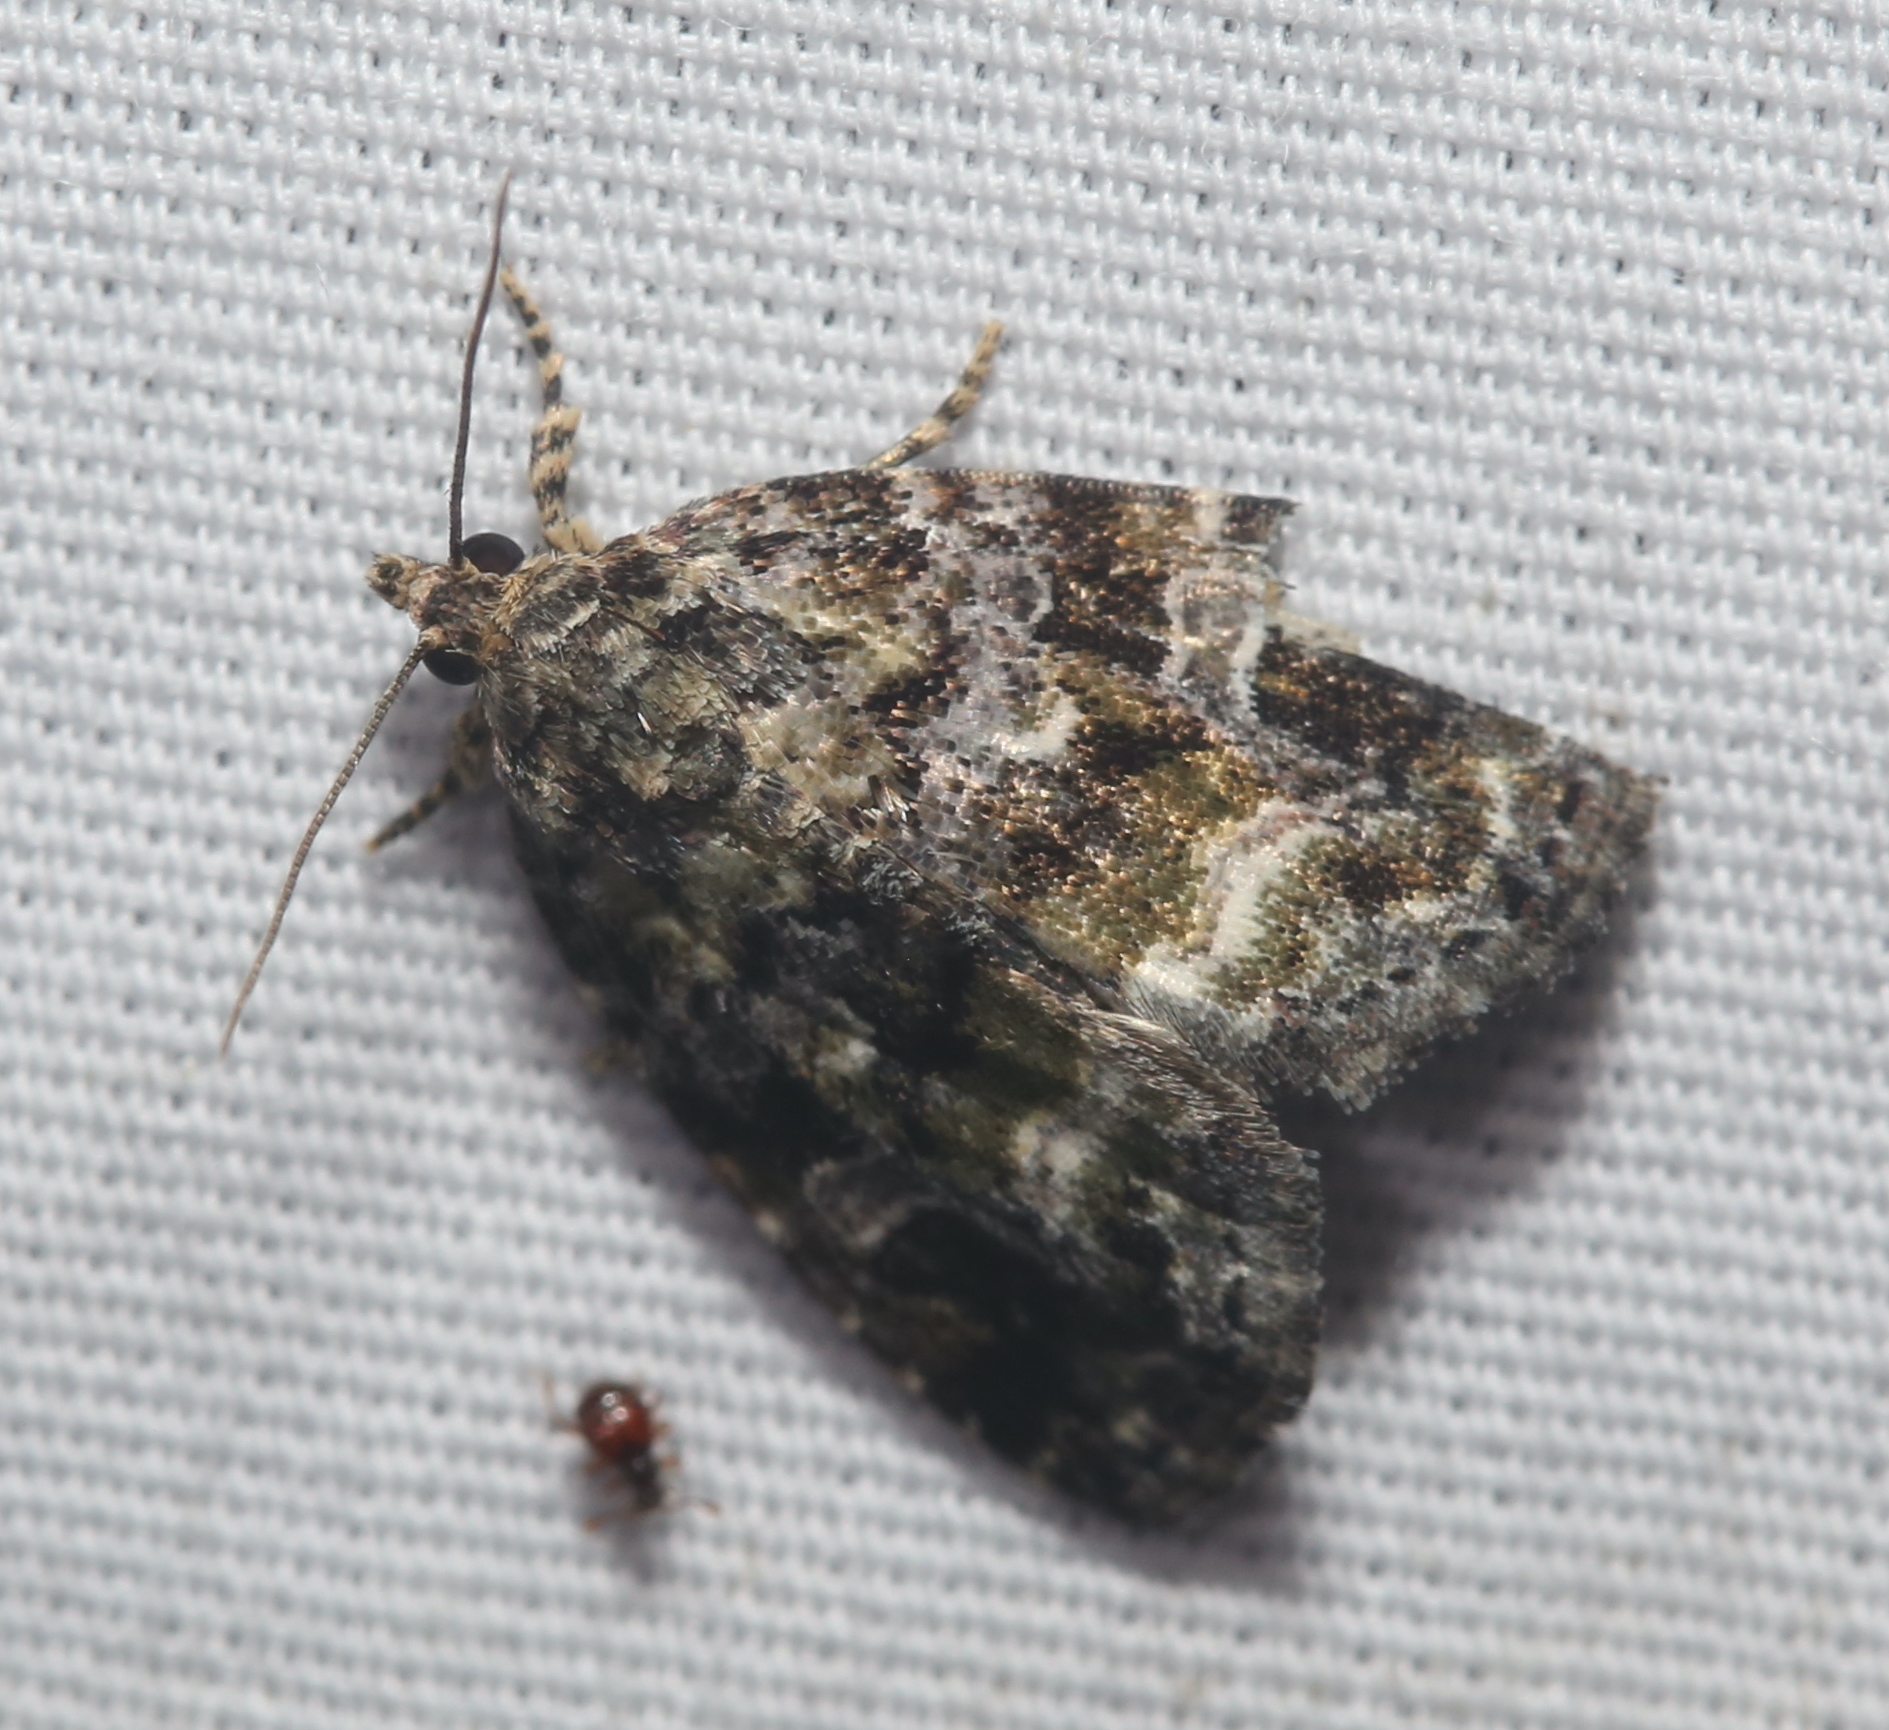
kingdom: Animalia
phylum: Arthropoda
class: Insecta
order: Lepidoptera
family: Noctuidae
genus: Protodeltote
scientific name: Protodeltote muscosula
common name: Large mossy glyph
